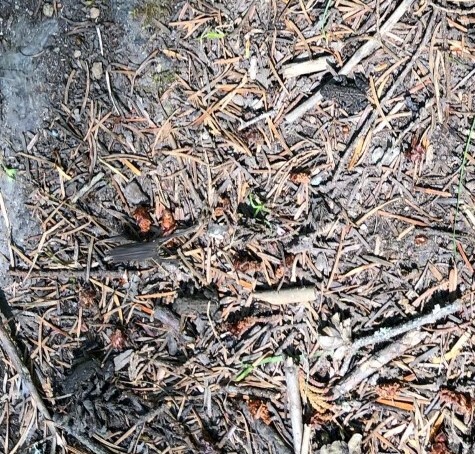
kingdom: Animalia
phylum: Chordata
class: Amphibia
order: Anura
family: Bufonidae
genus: Anaxyrus
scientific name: Anaxyrus boreas
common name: Western toad
